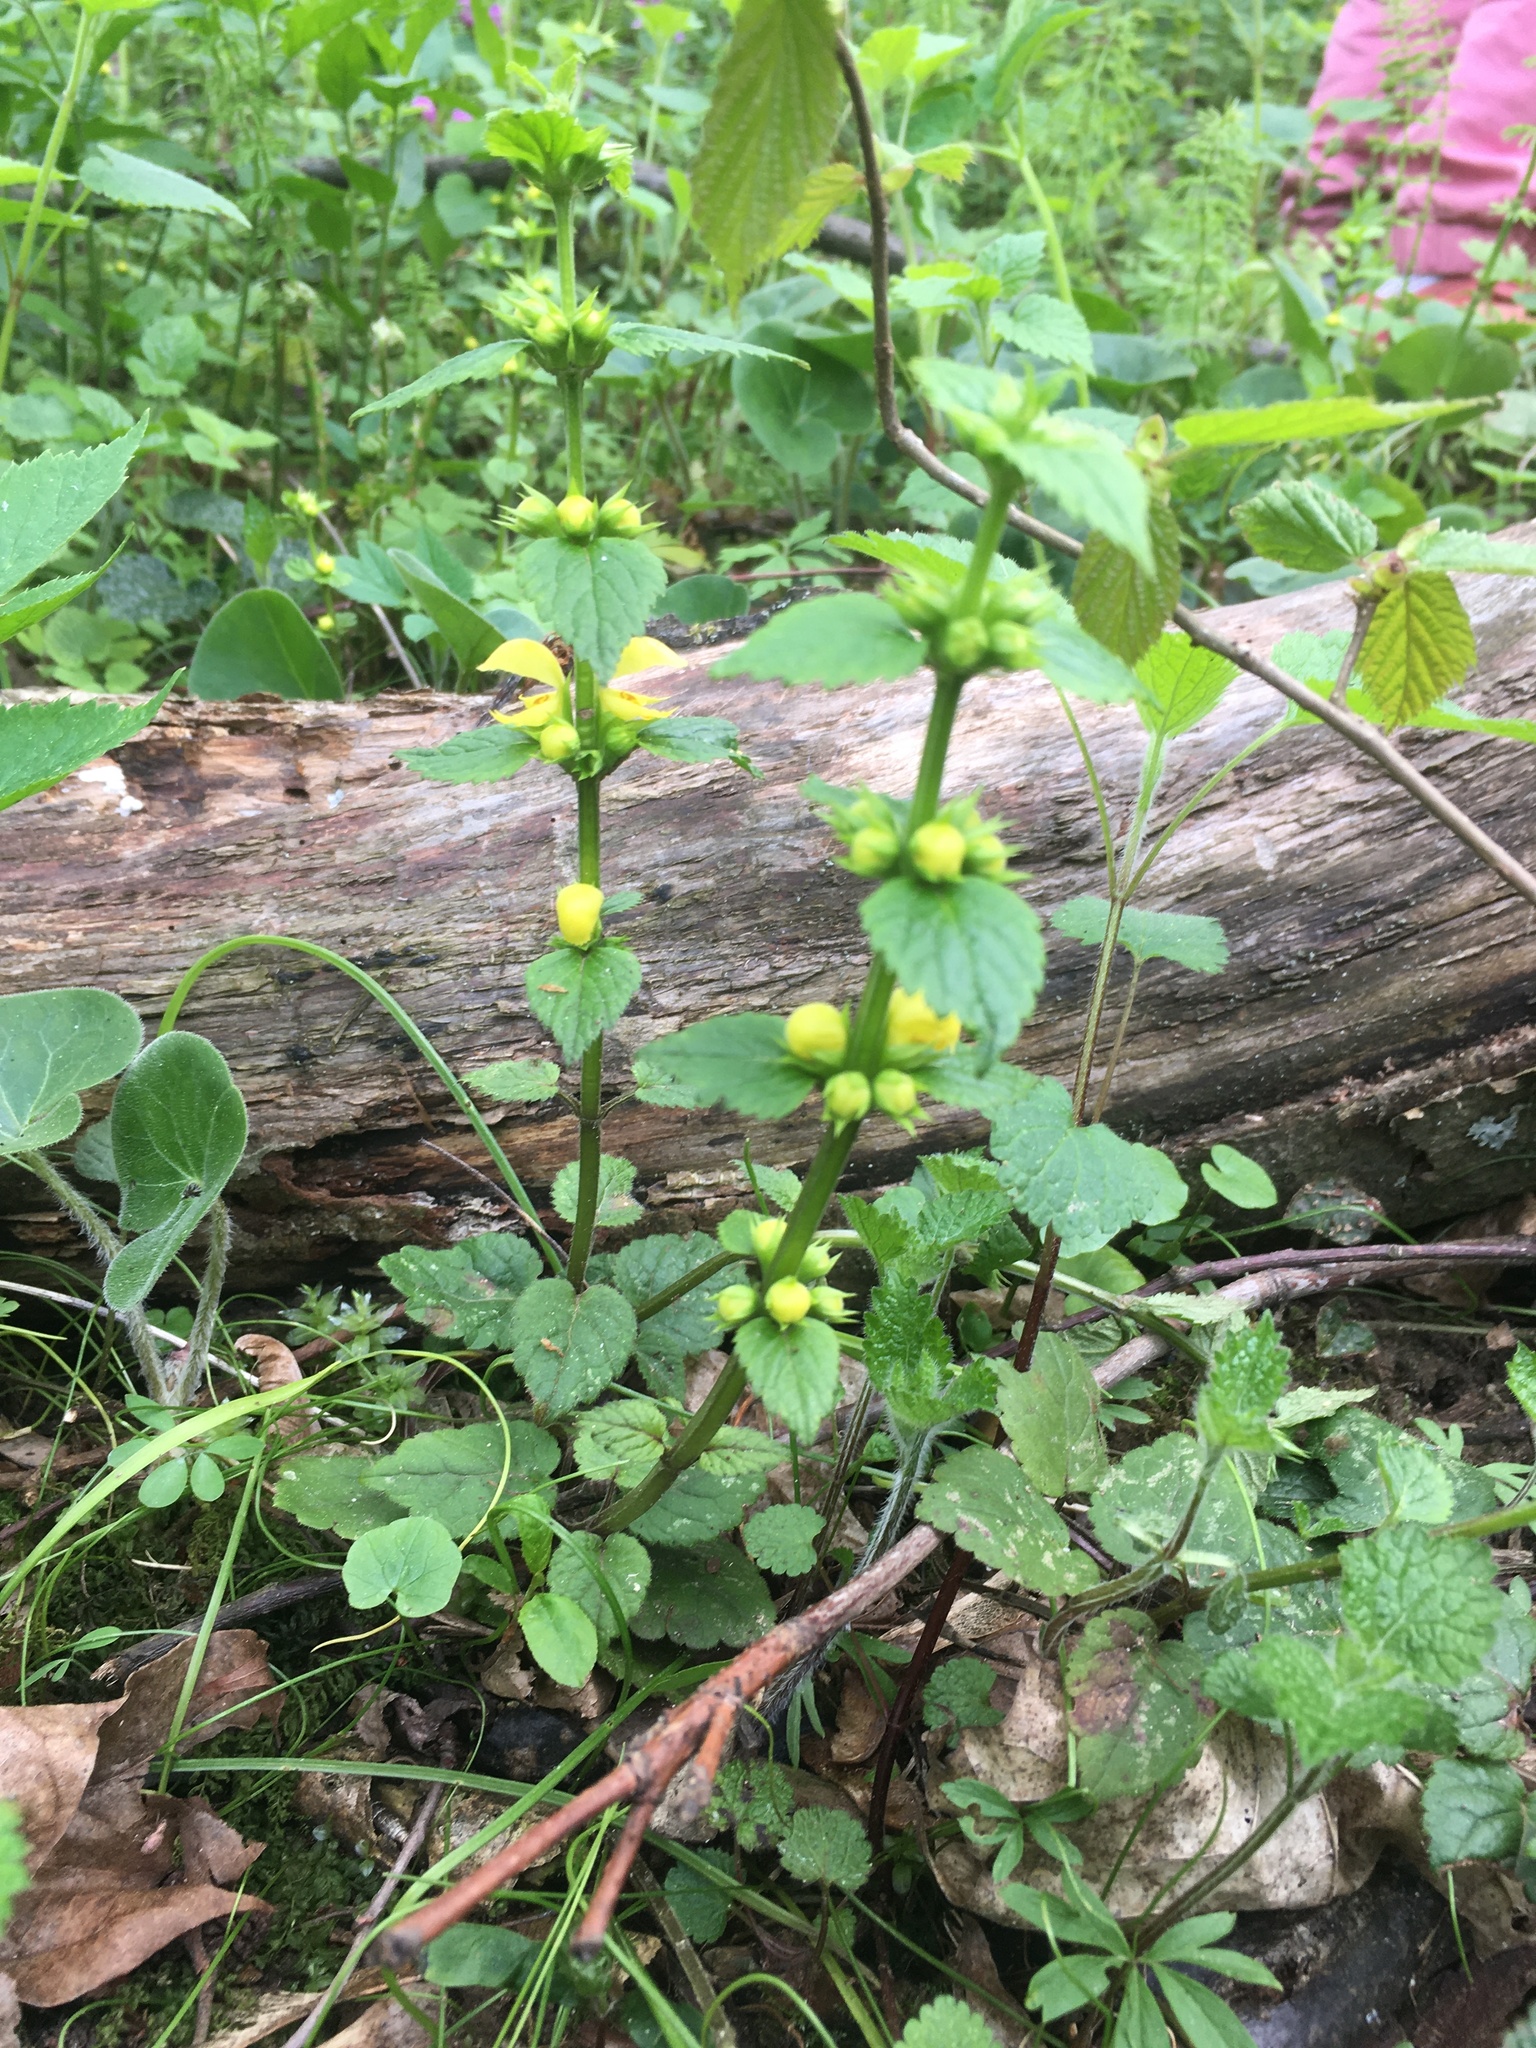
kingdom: Plantae
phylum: Tracheophyta
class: Magnoliopsida
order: Lamiales
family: Lamiaceae
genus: Lamium
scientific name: Lamium galeobdolon
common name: Yellow archangel
